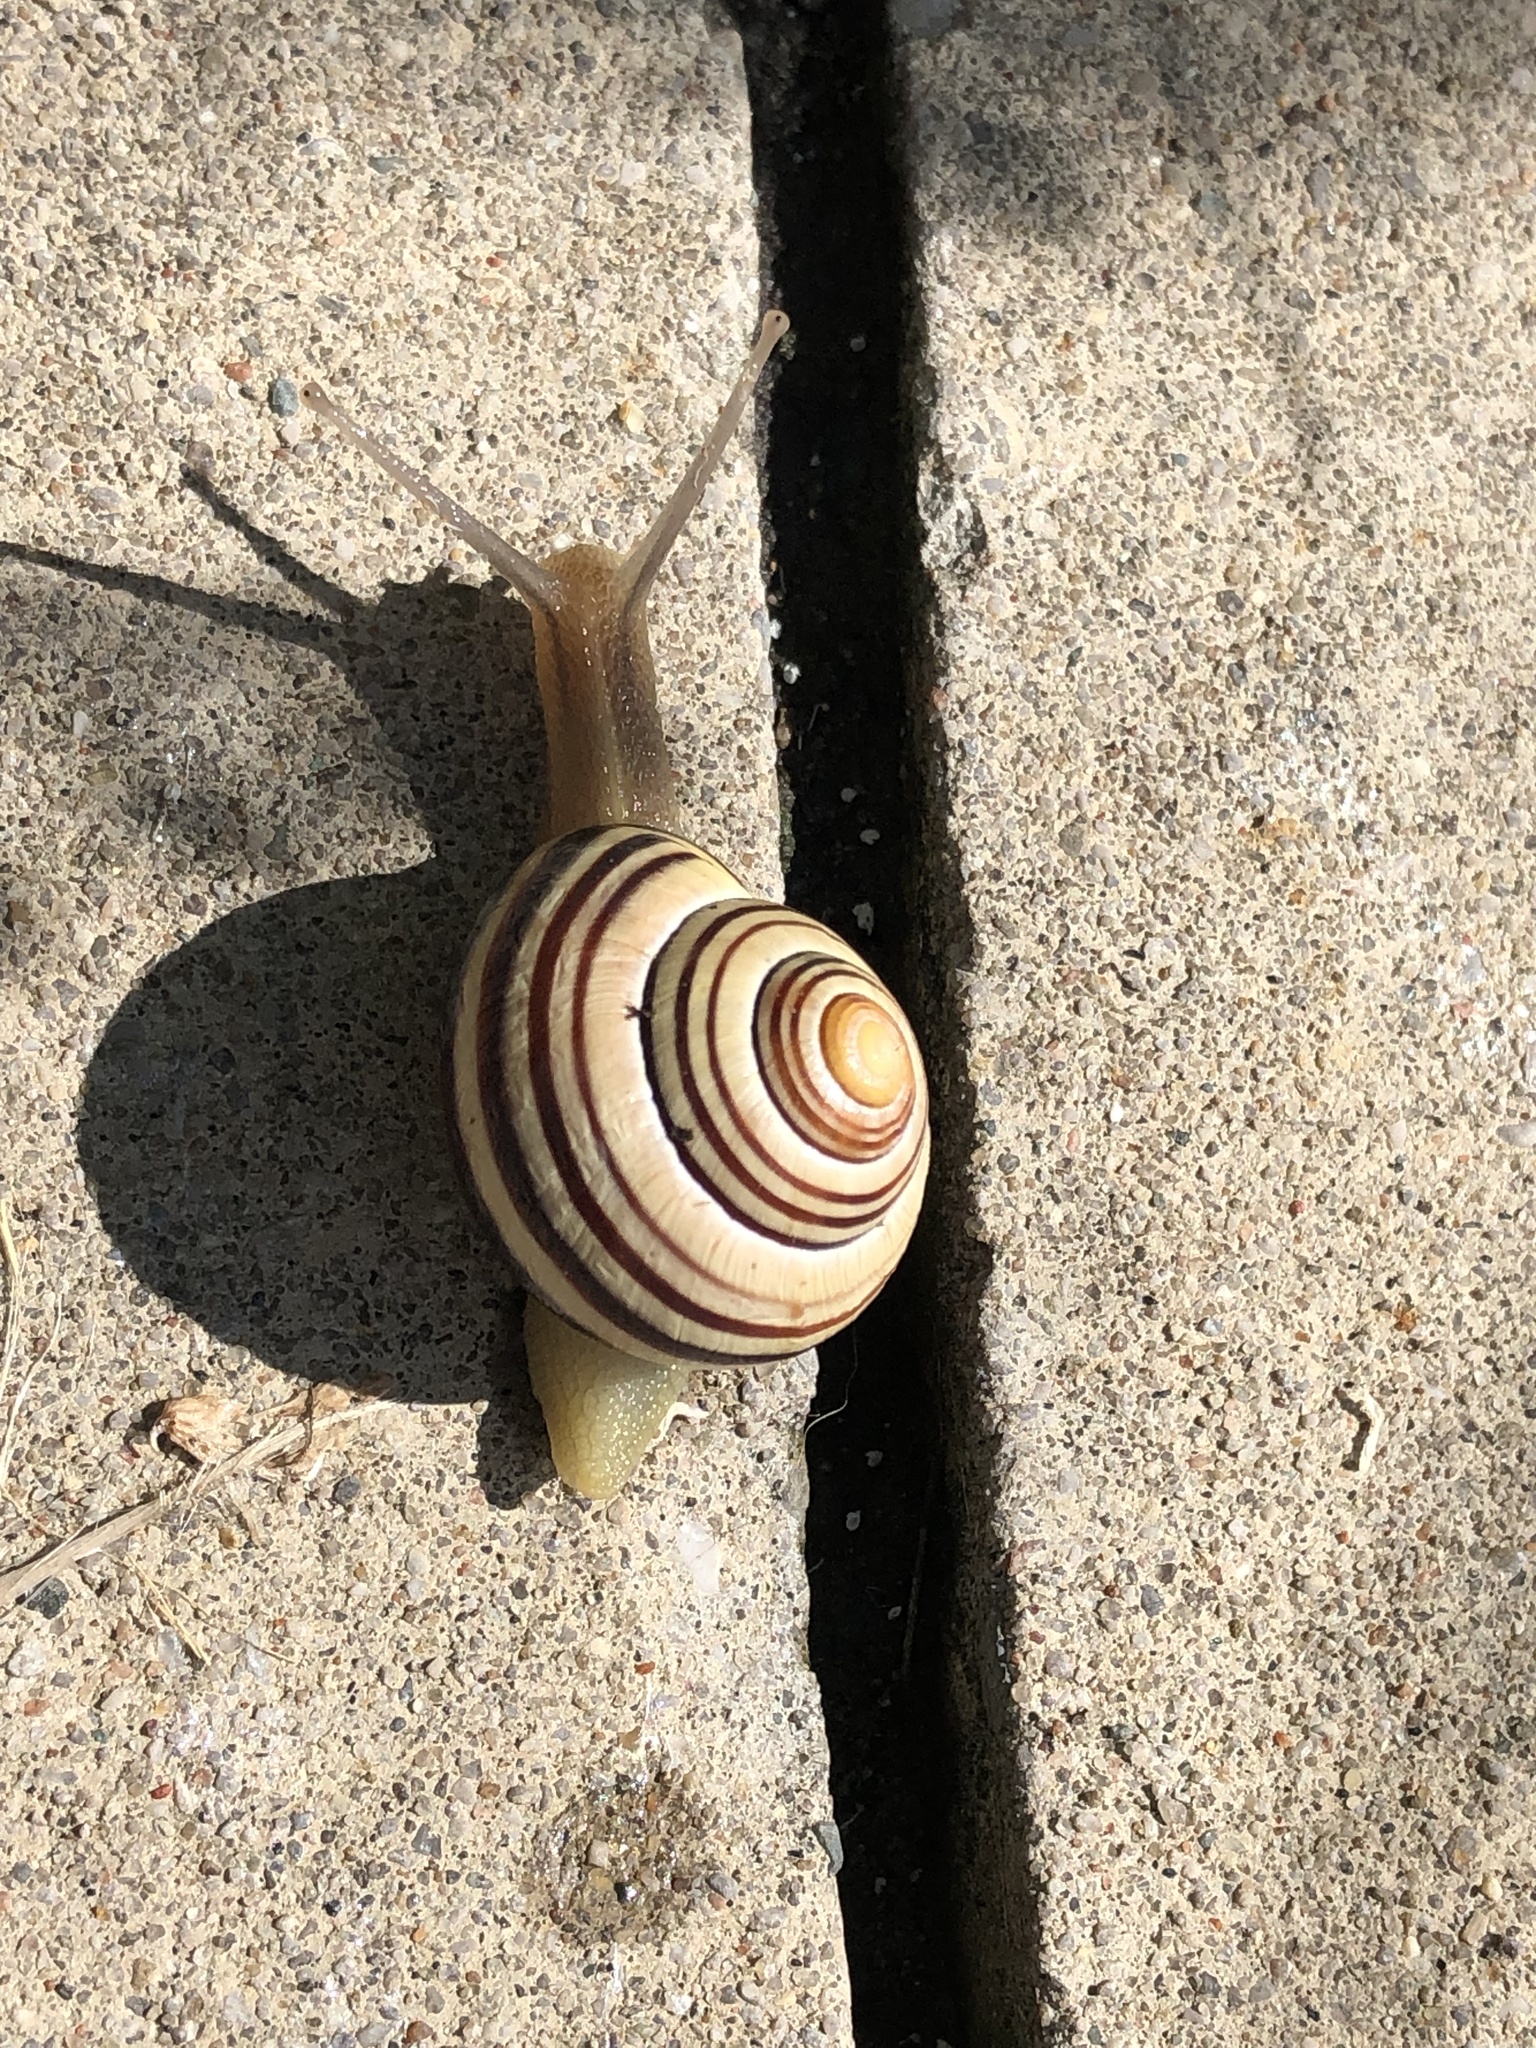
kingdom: Animalia
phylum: Mollusca
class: Gastropoda
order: Stylommatophora
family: Helicidae
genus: Cepaea
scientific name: Cepaea nemoralis
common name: Grovesnail
